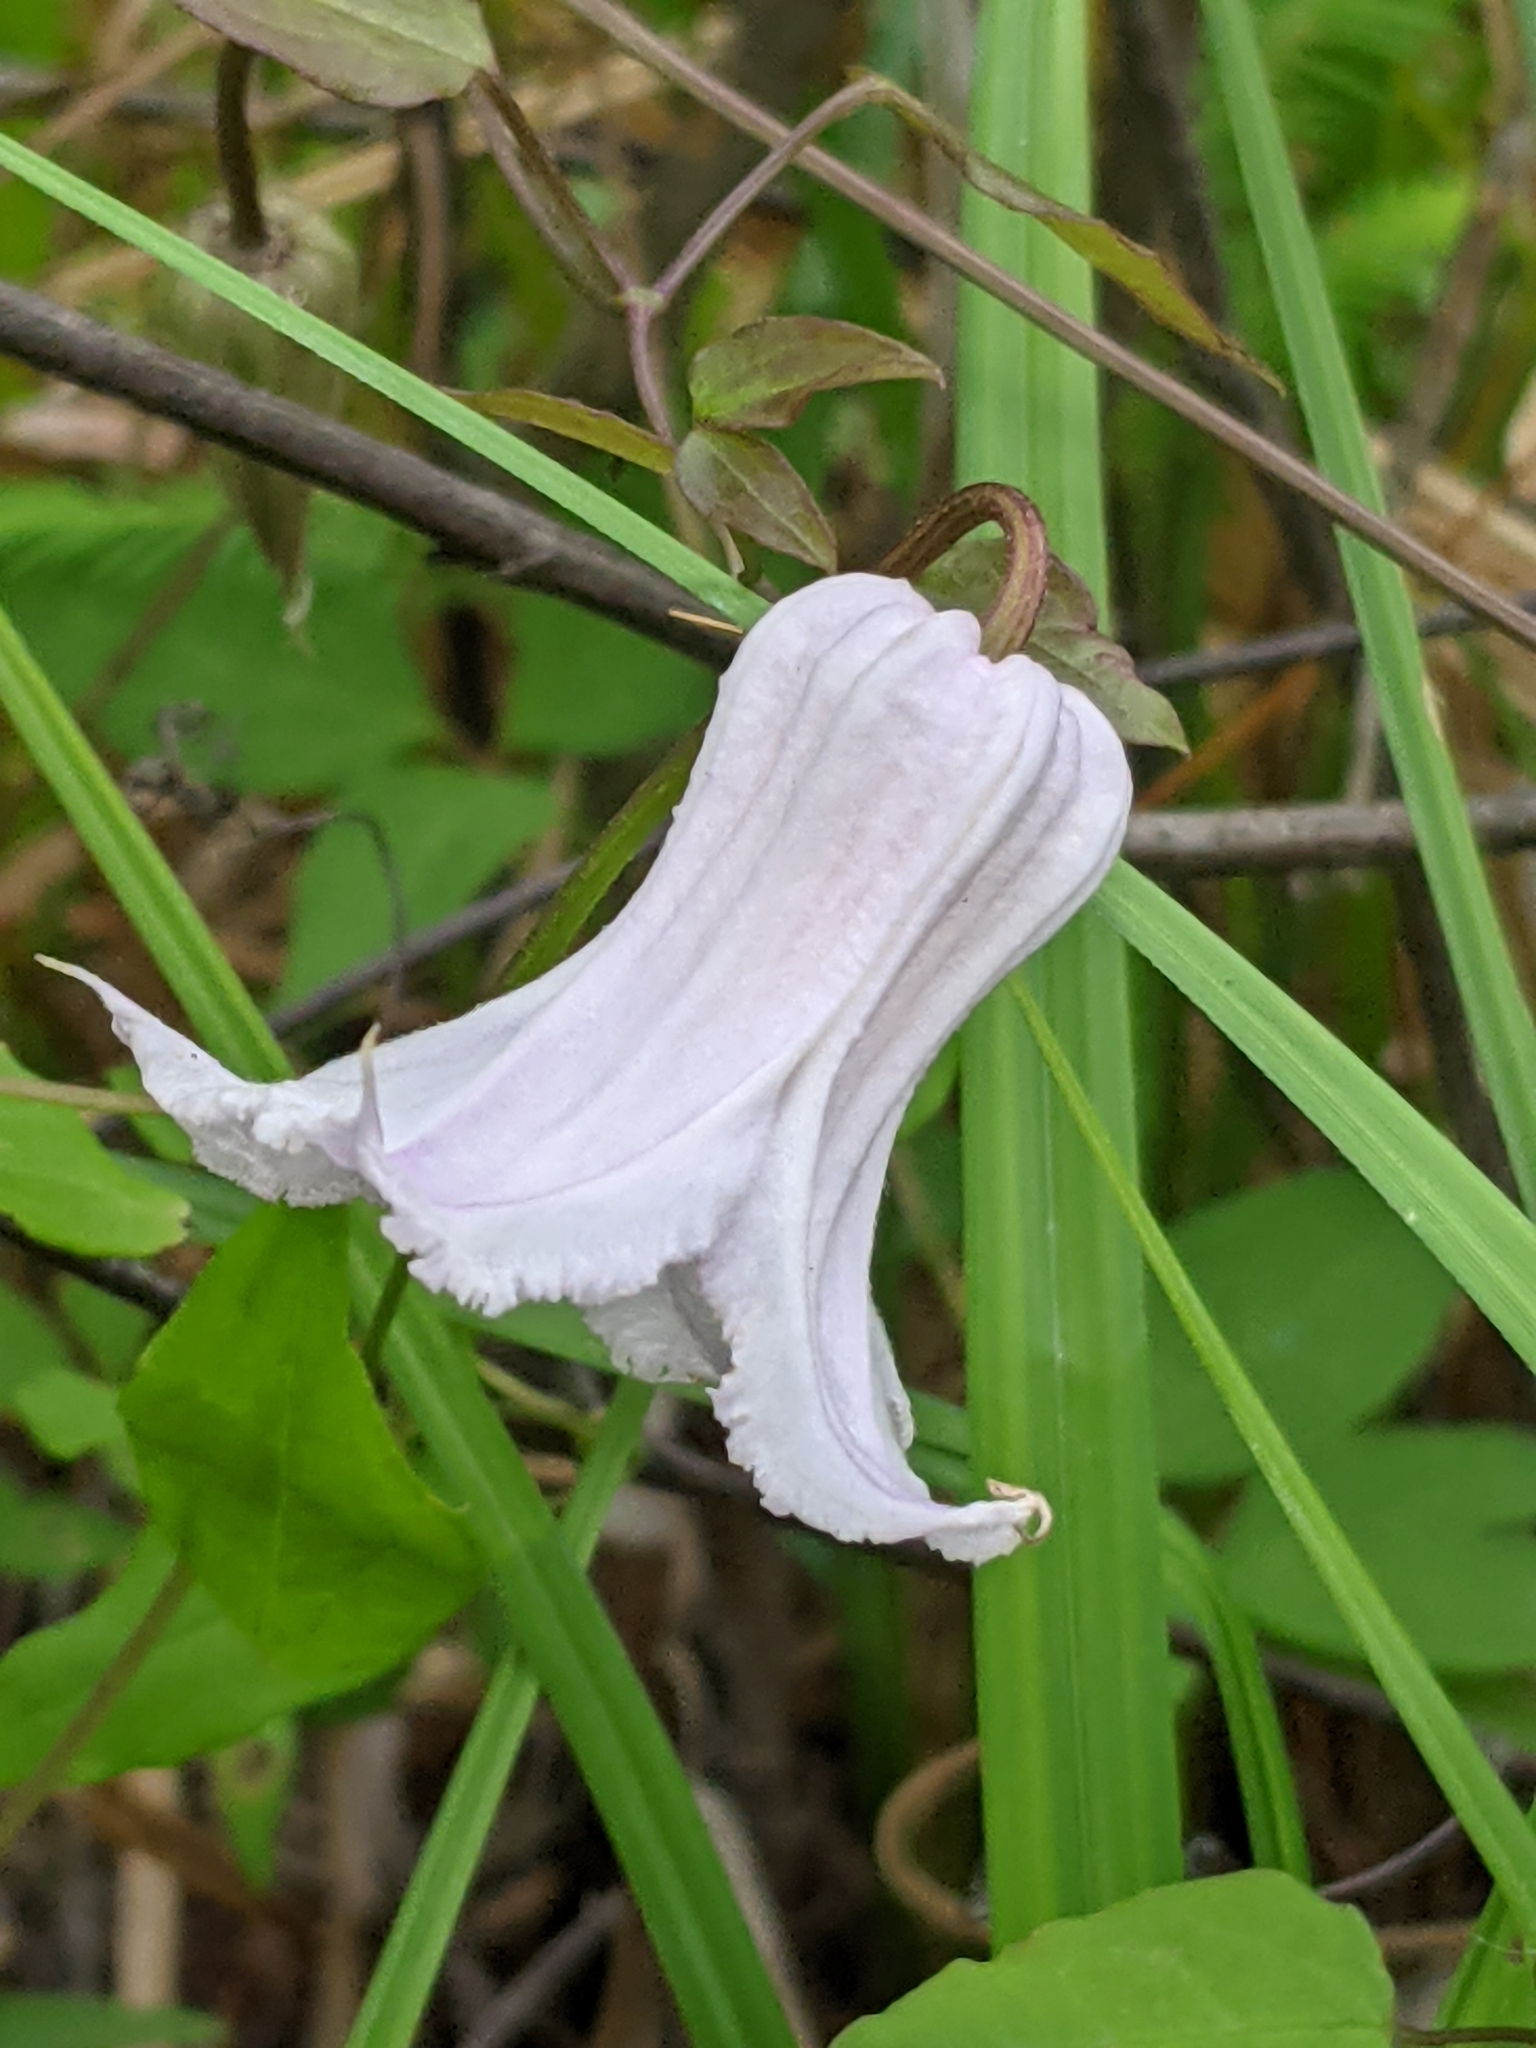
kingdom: Plantae
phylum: Tracheophyta
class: Magnoliopsida
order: Ranunculales
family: Ranunculaceae
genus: Clematis
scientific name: Clematis crispa
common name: Curly clematis
